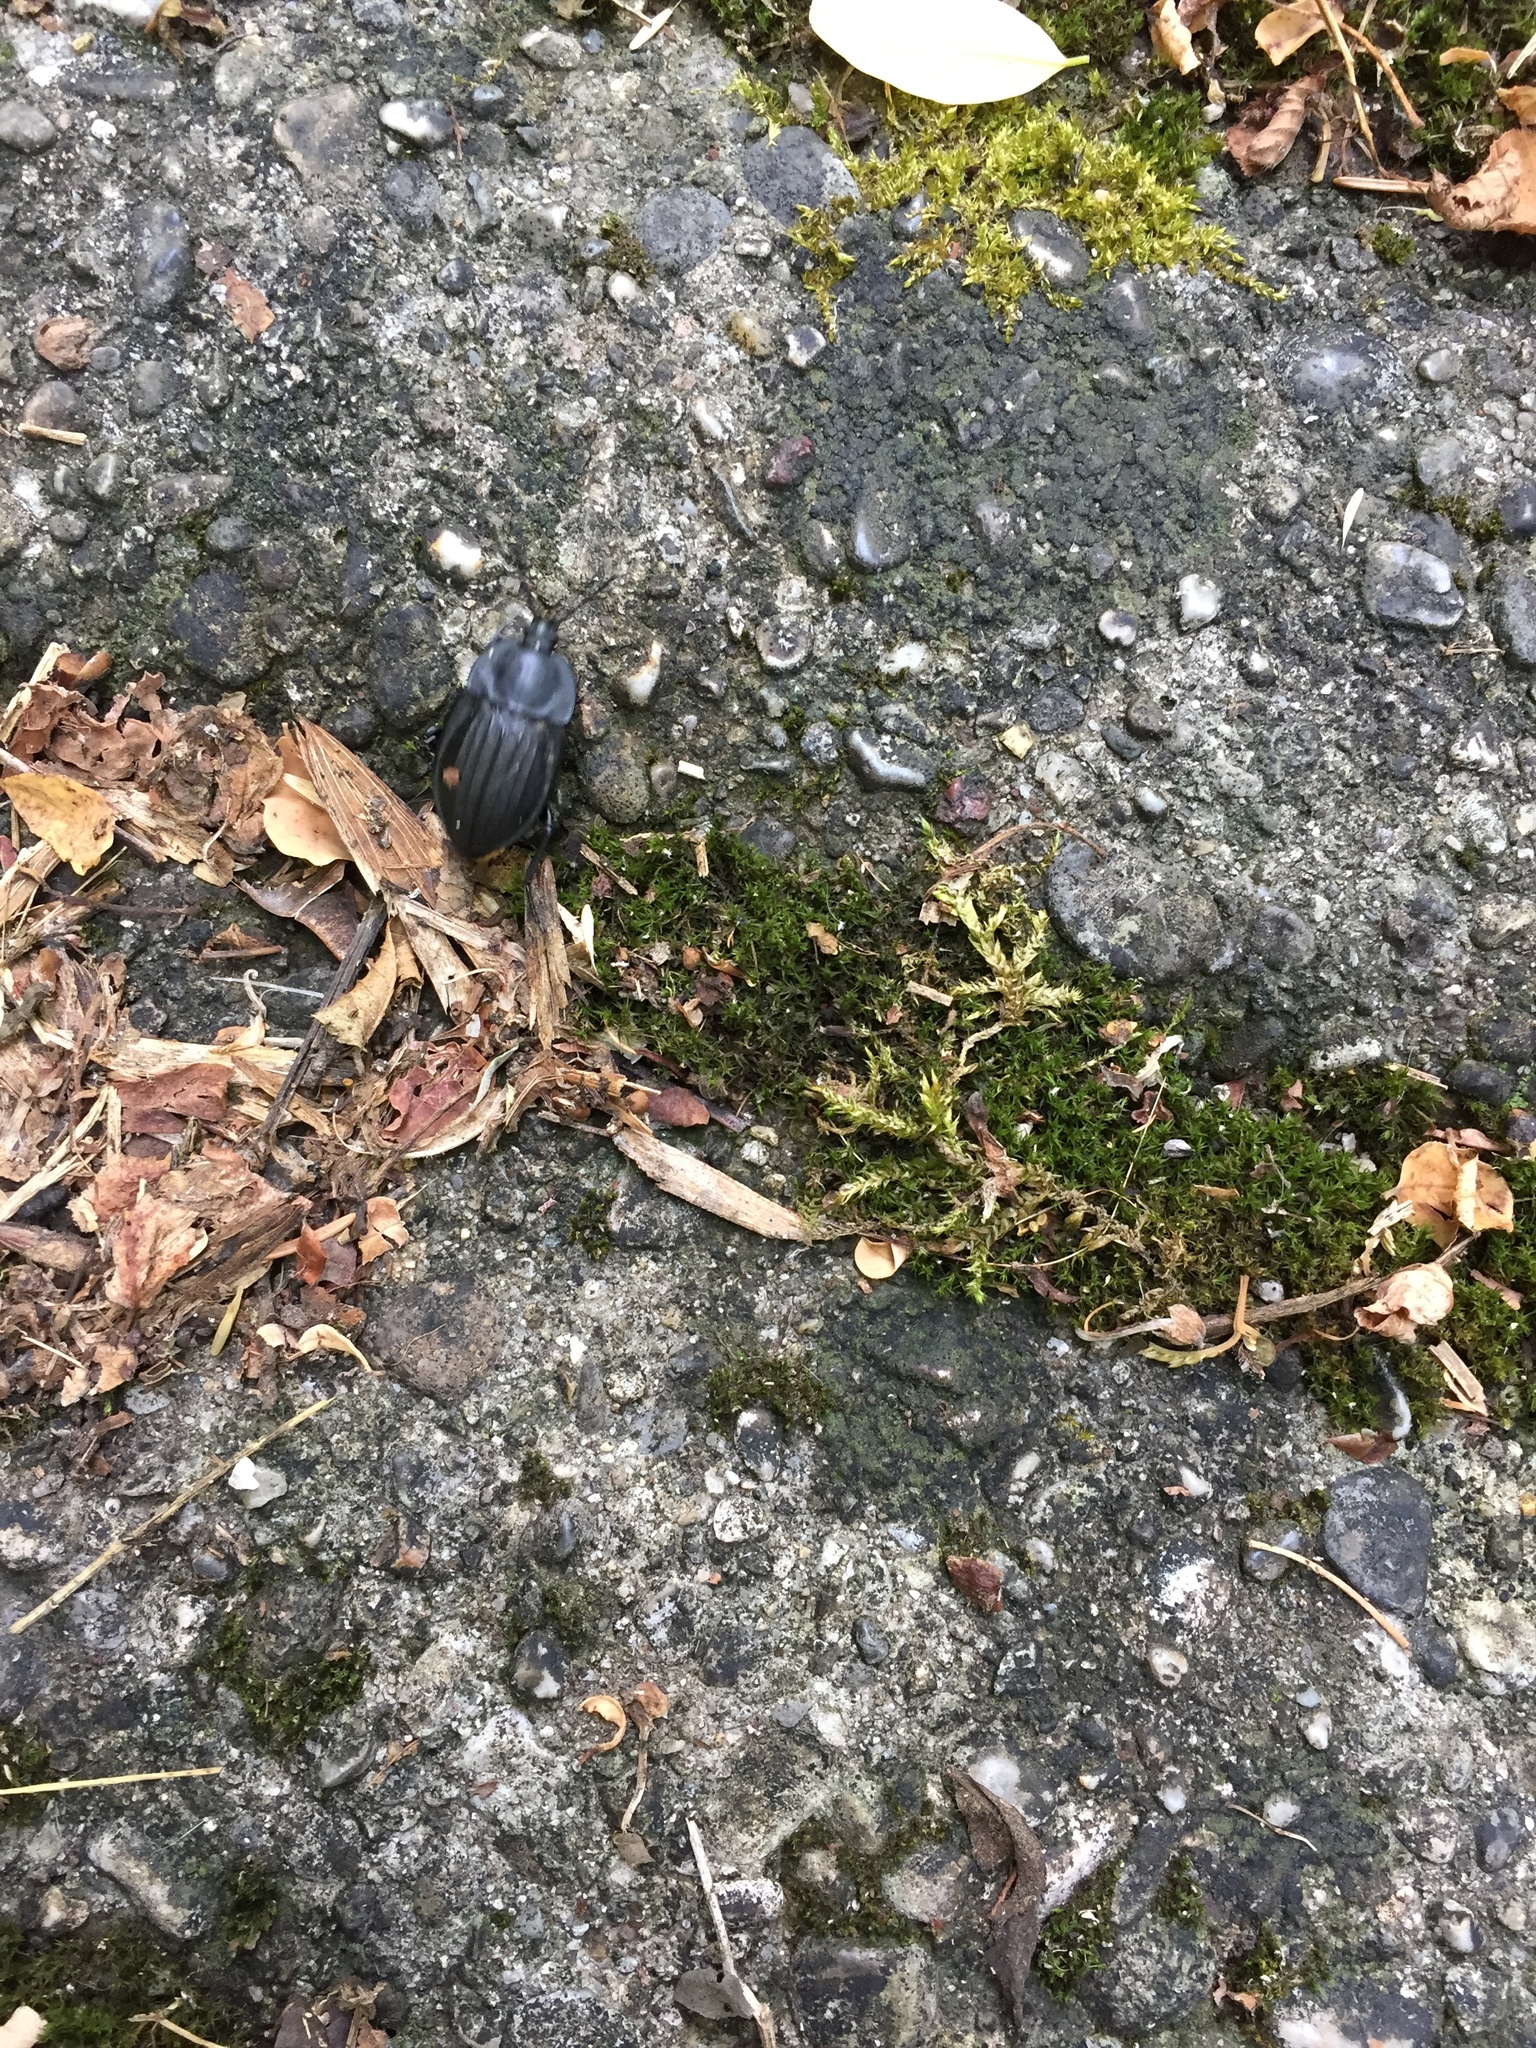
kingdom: Animalia
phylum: Arthropoda
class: Insecta
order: Coleoptera
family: Staphylinidae
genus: Silpha
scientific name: Silpha carinata
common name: Silphid beetle
